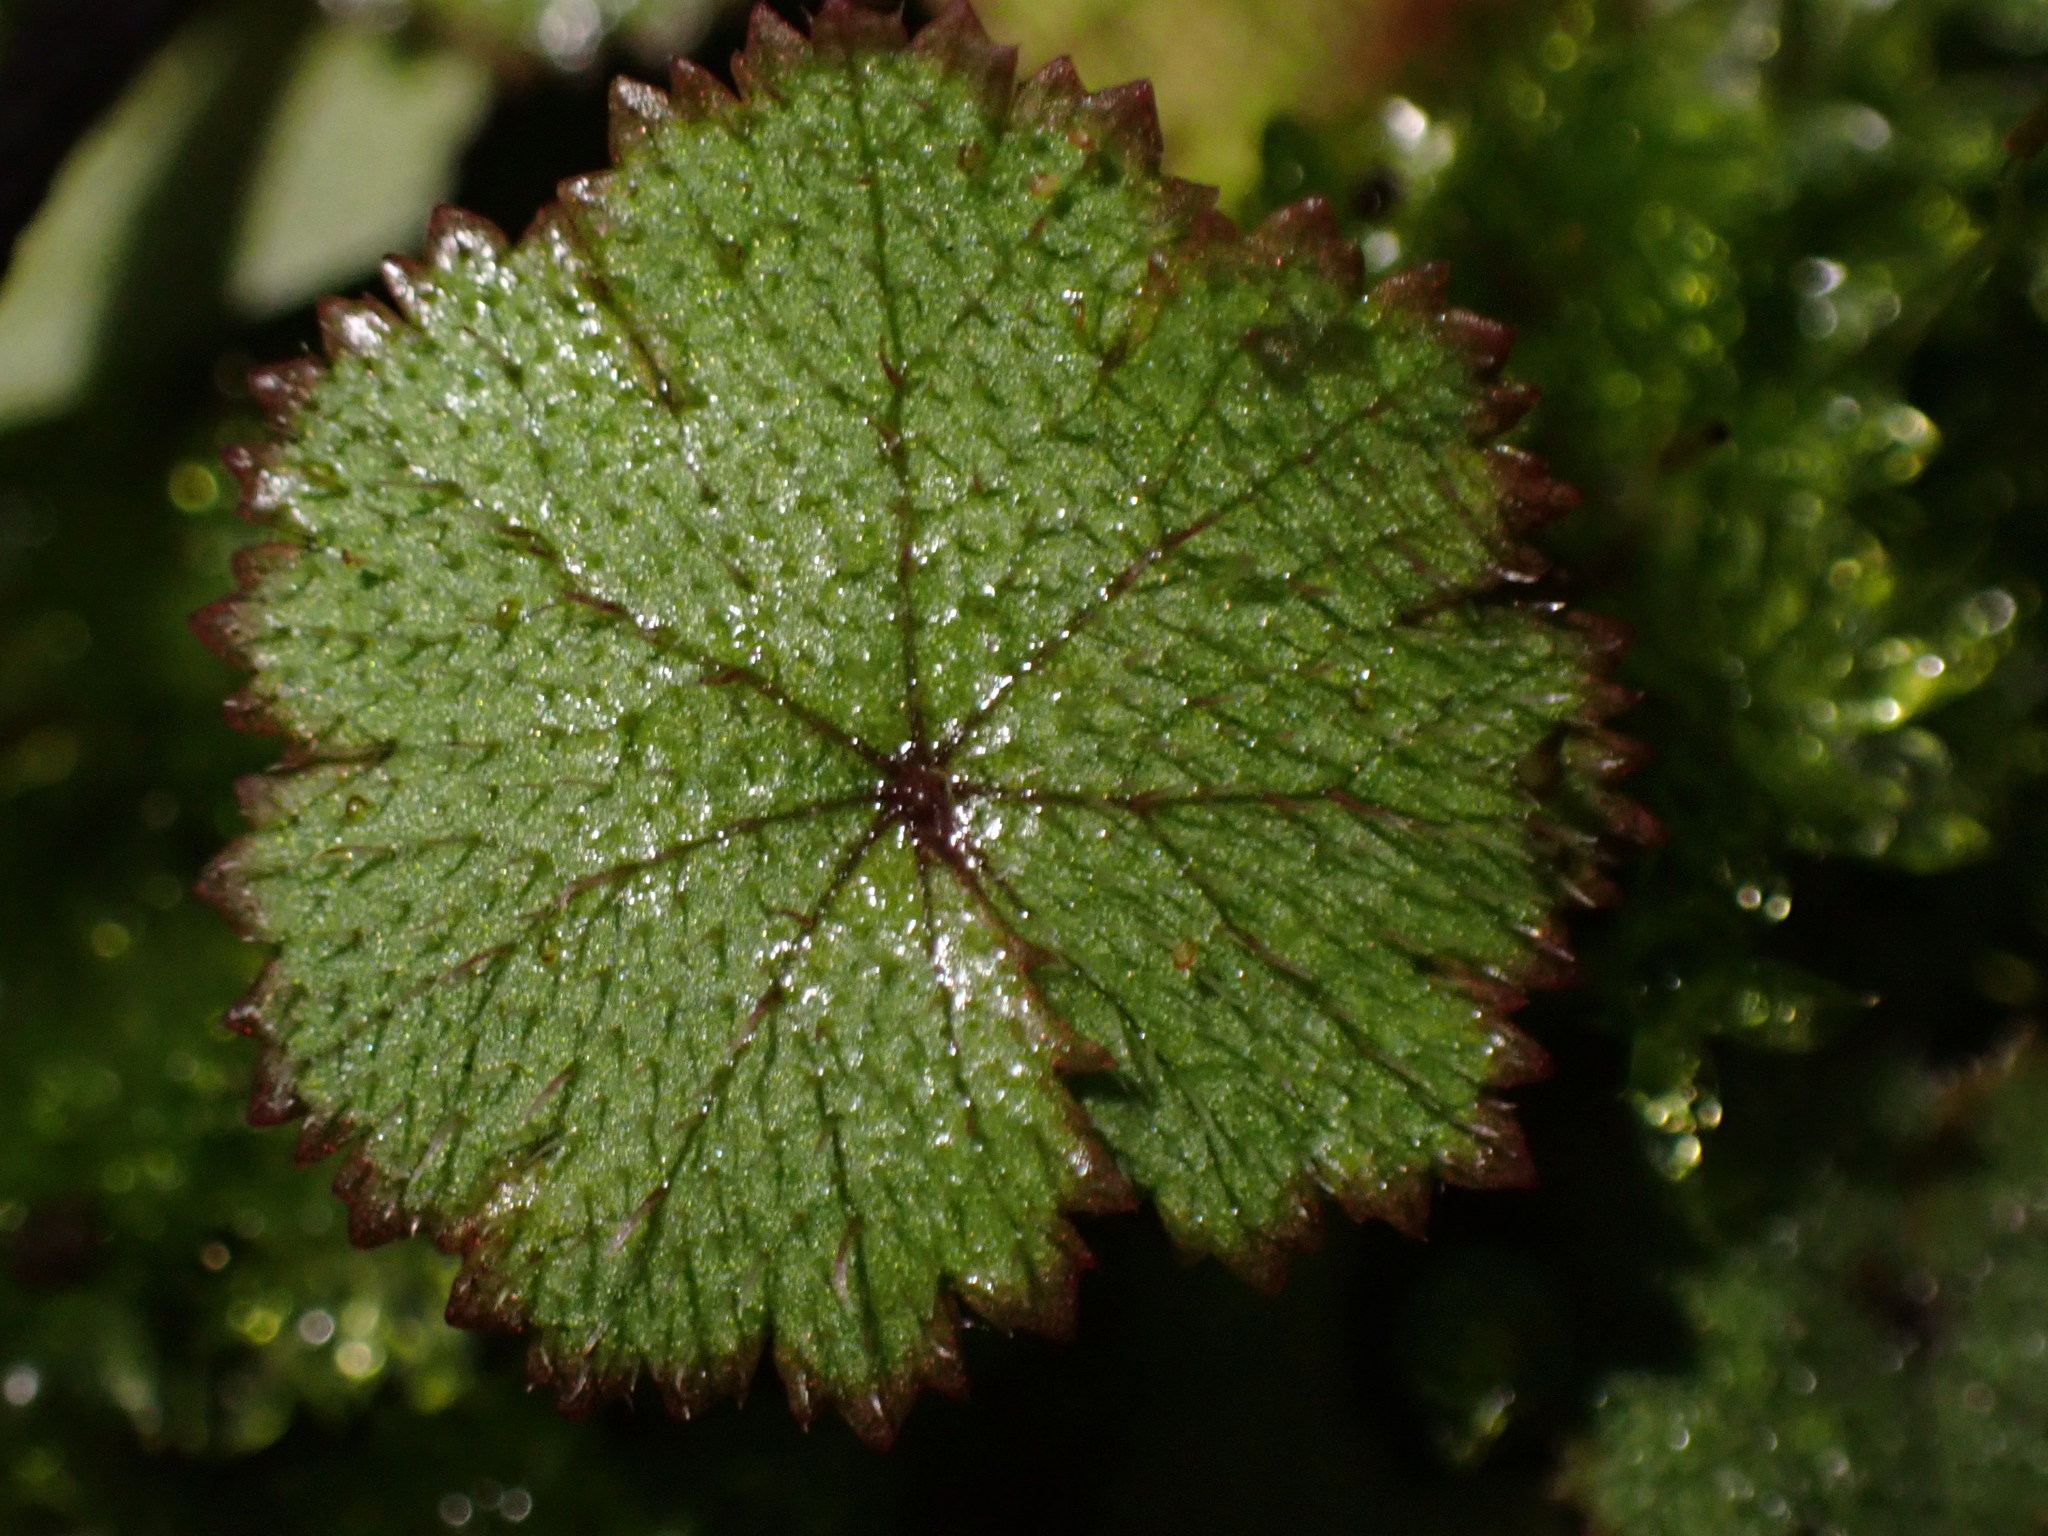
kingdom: Plantae
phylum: Tracheophyta
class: Magnoliopsida
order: Apiales
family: Araliaceae
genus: Hydrocotyle
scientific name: Hydrocotyle moschata
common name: Hairy pennywort
